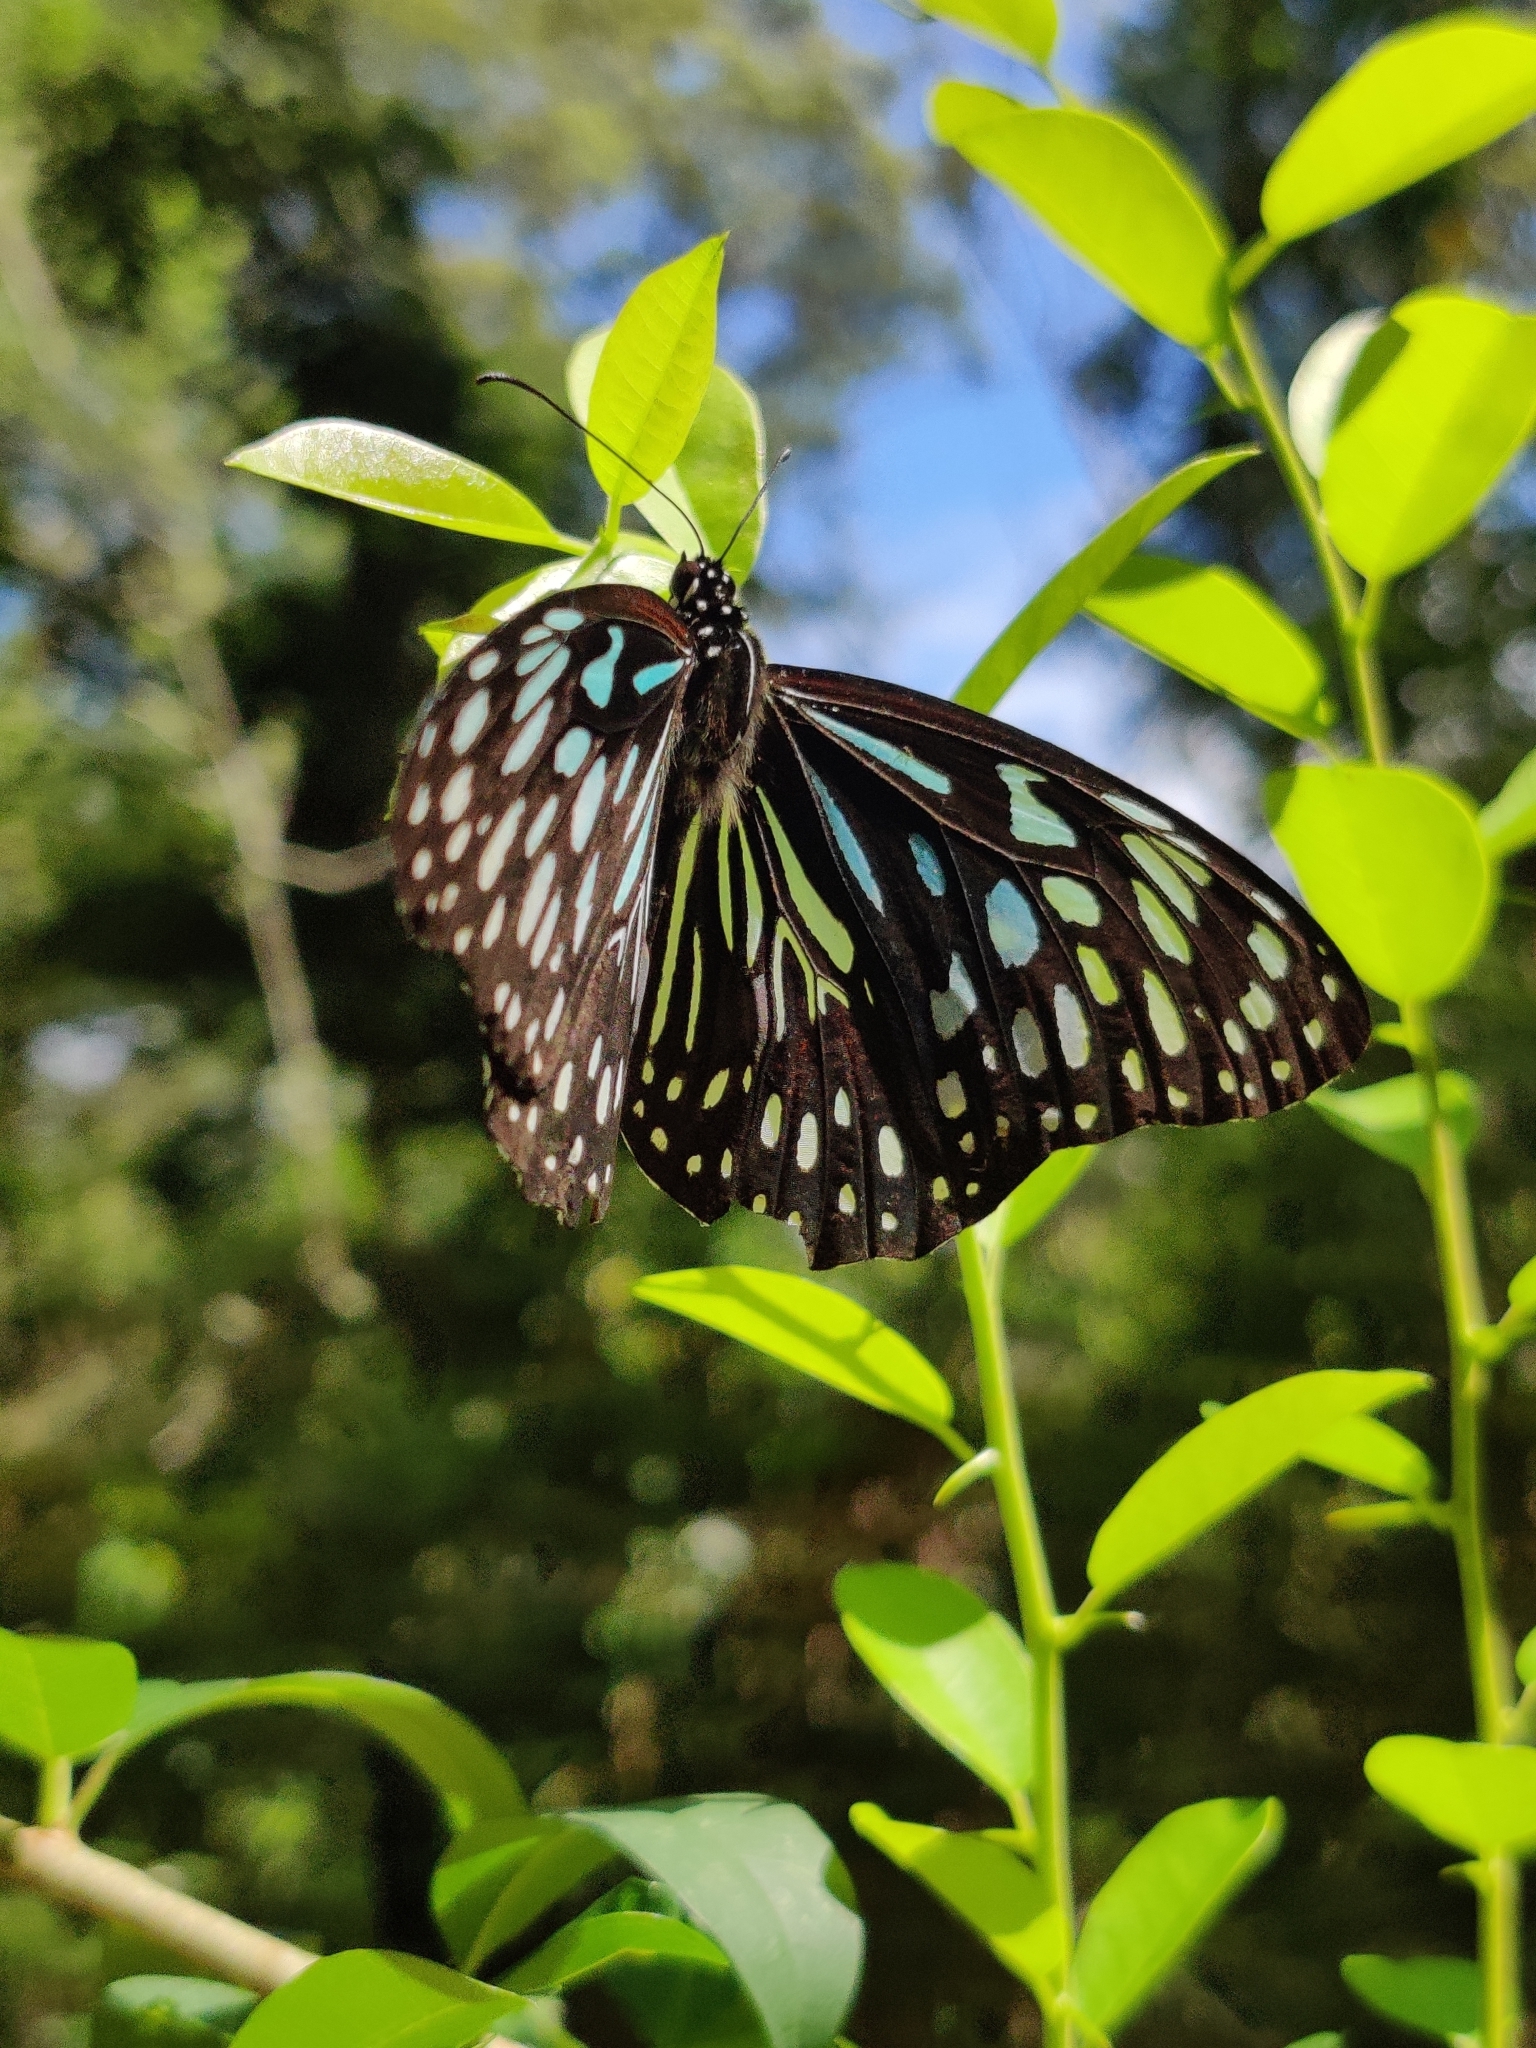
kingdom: Animalia
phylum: Arthropoda
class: Insecta
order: Lepidoptera
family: Nymphalidae
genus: Tirumala
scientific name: Tirumala hamata
